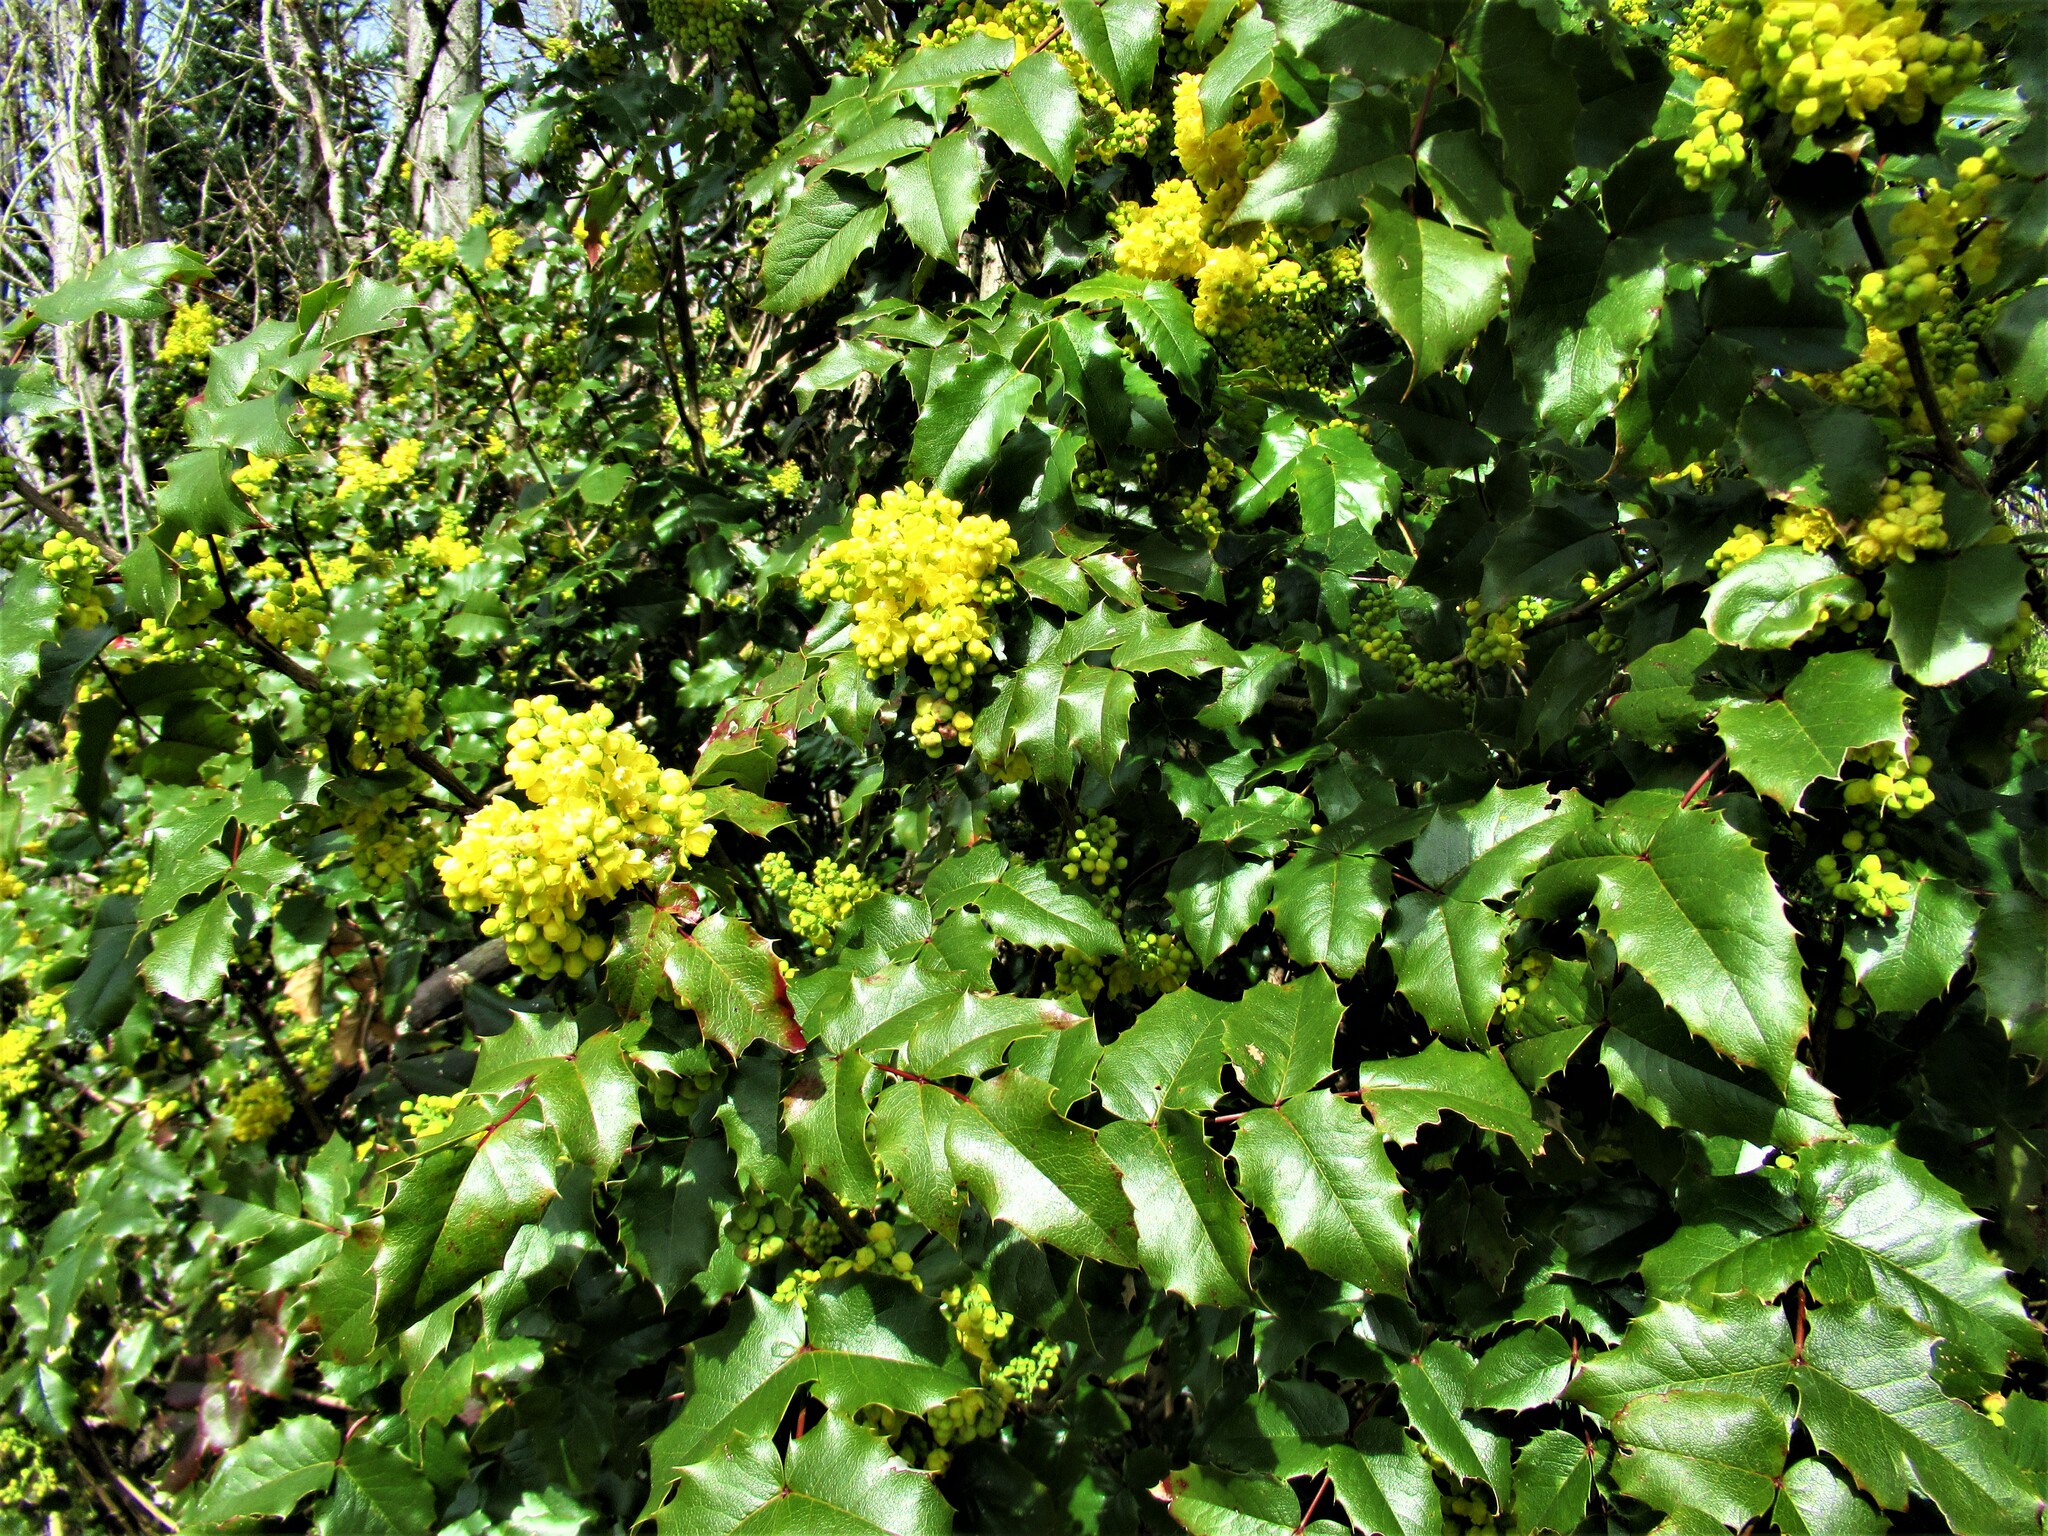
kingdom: Plantae
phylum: Tracheophyta
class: Magnoliopsida
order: Ranunculales
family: Berberidaceae
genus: Mahonia
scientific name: Mahonia aquifolium
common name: Oregon-grape
